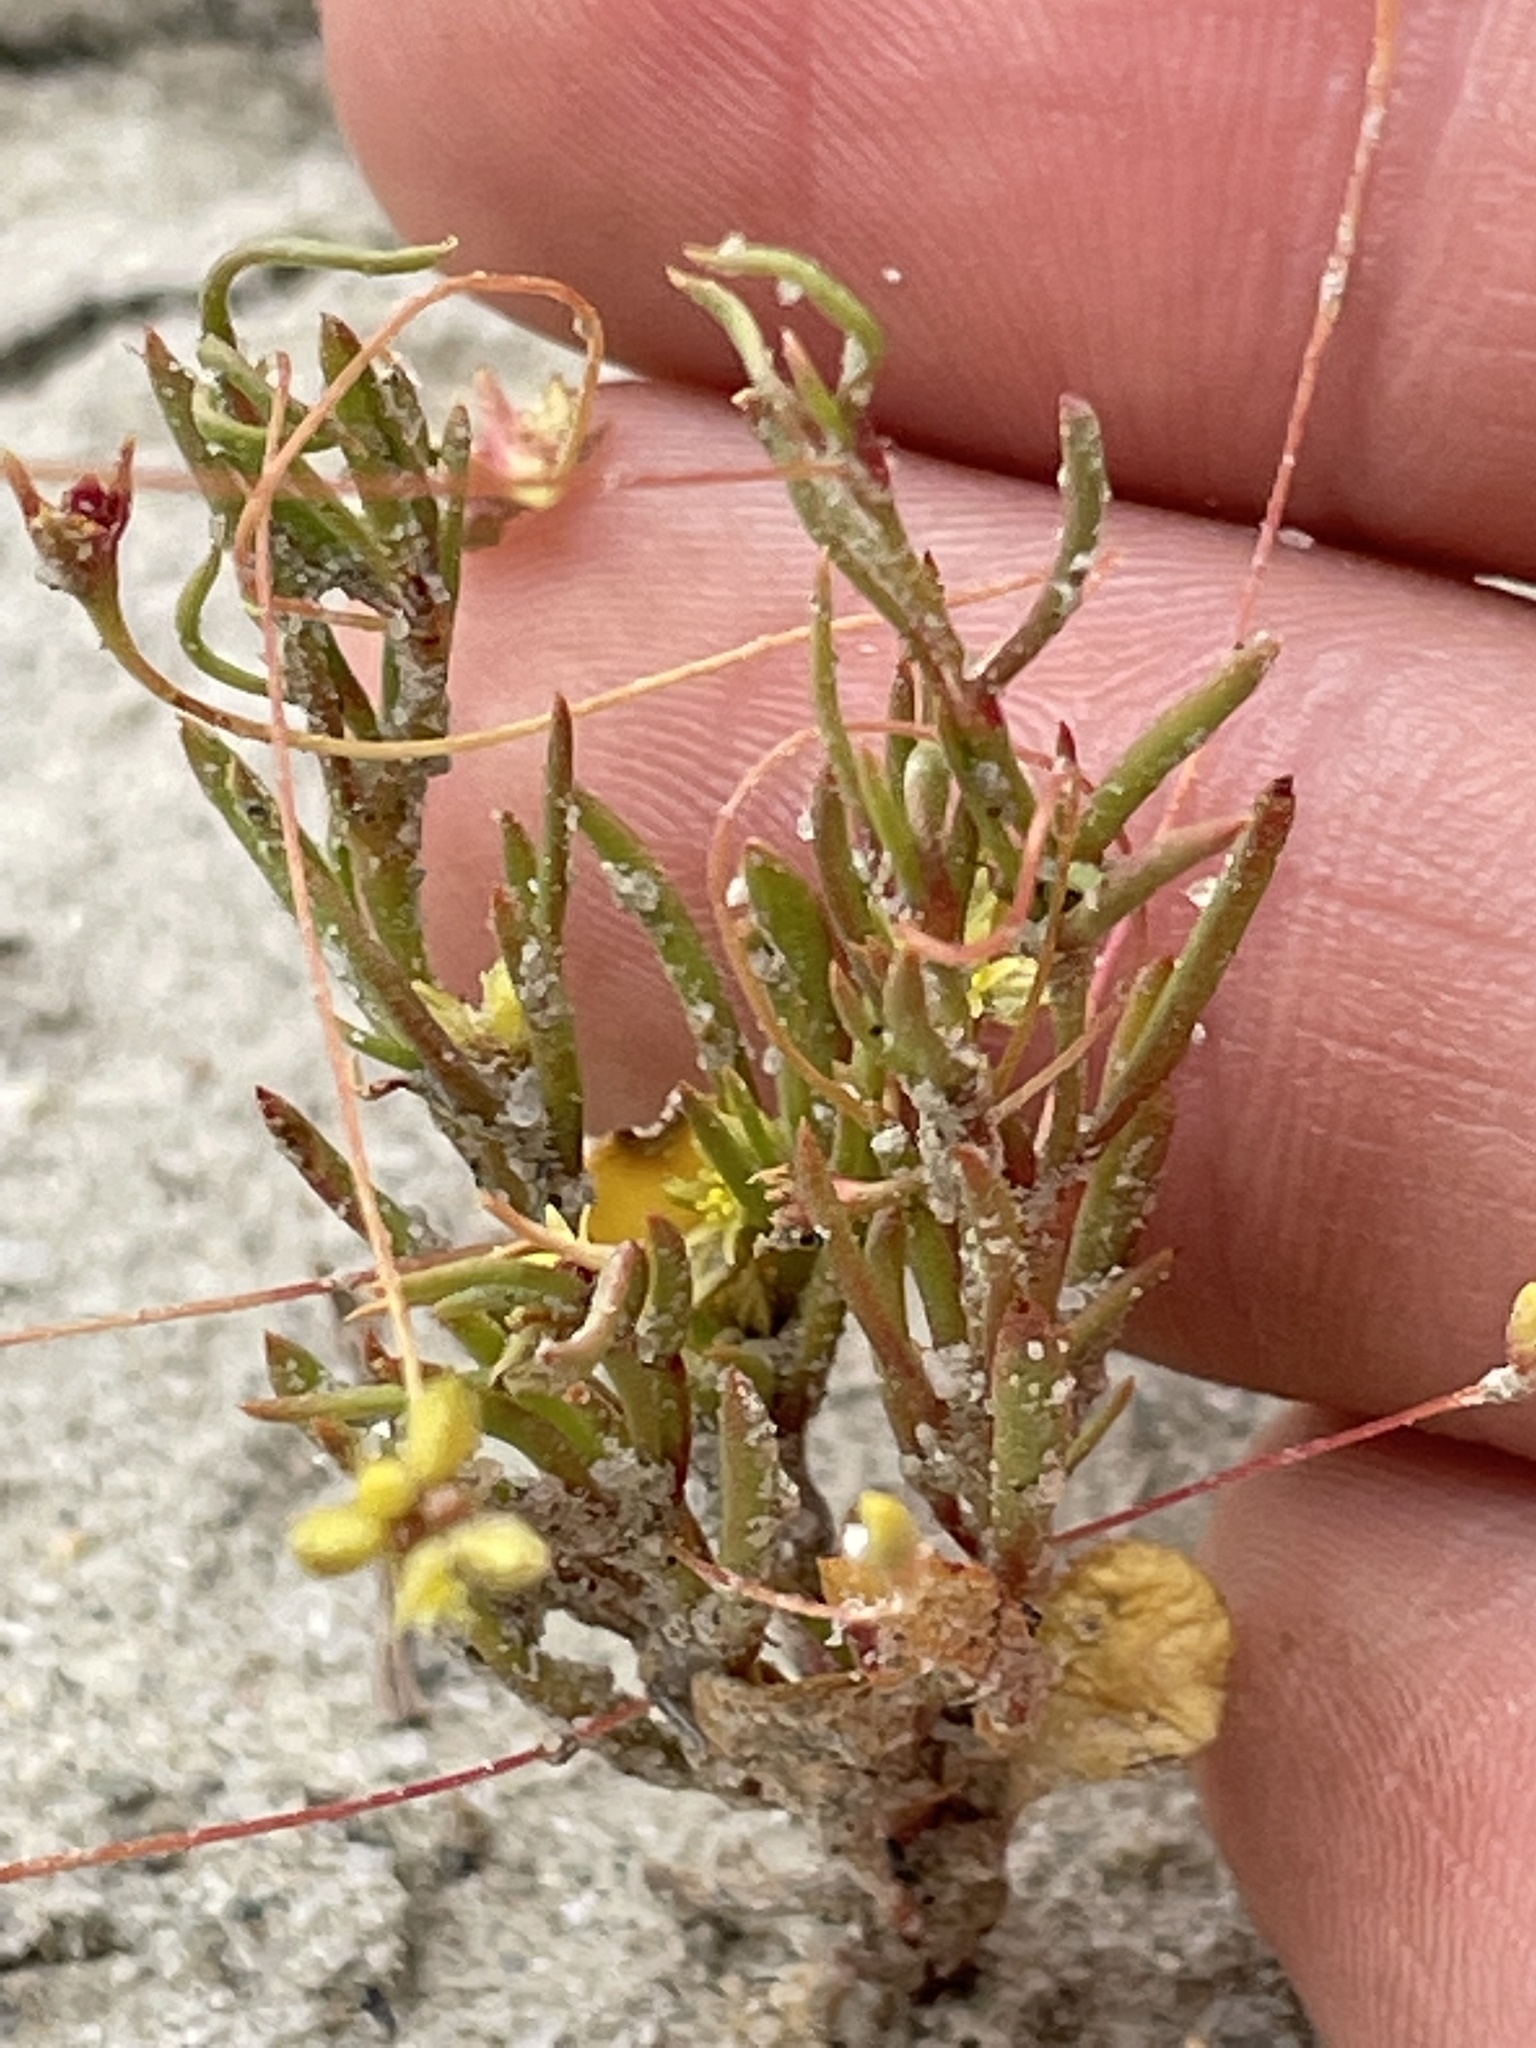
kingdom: Plantae
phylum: Tracheophyta
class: Magnoliopsida
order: Caryophyllales
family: Polygonaceae
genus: Stenogonum
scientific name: Stenogonum salsuginosum
